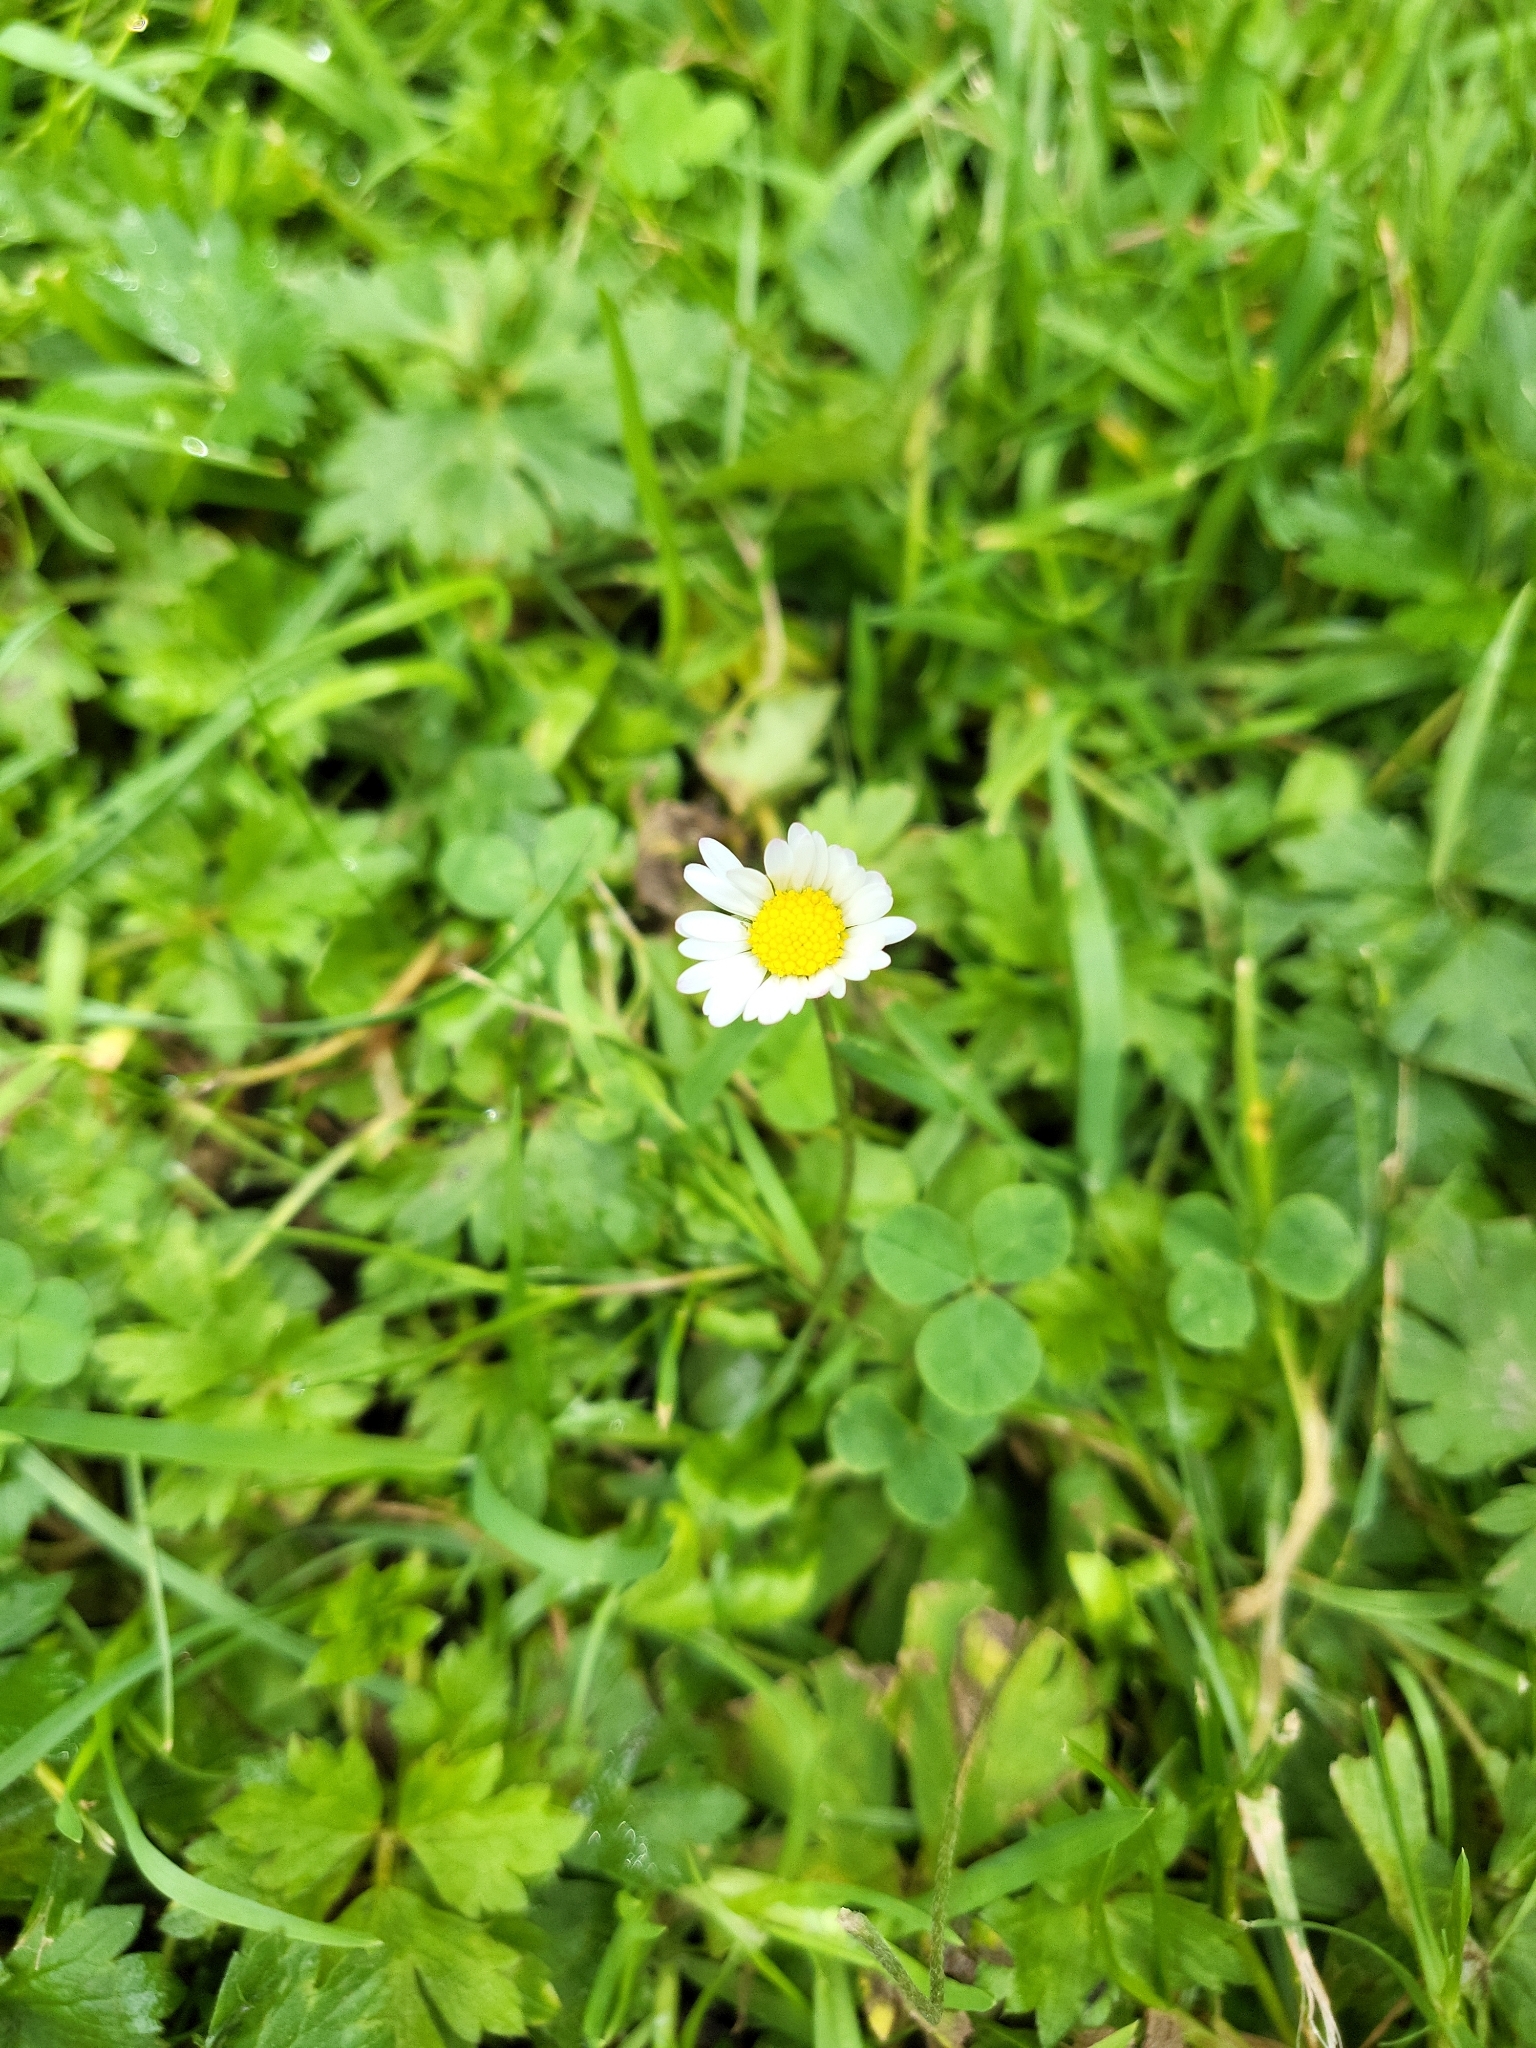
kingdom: Plantae
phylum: Tracheophyta
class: Magnoliopsida
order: Asterales
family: Asteraceae
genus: Bellis
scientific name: Bellis perennis
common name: Lawndaisy
